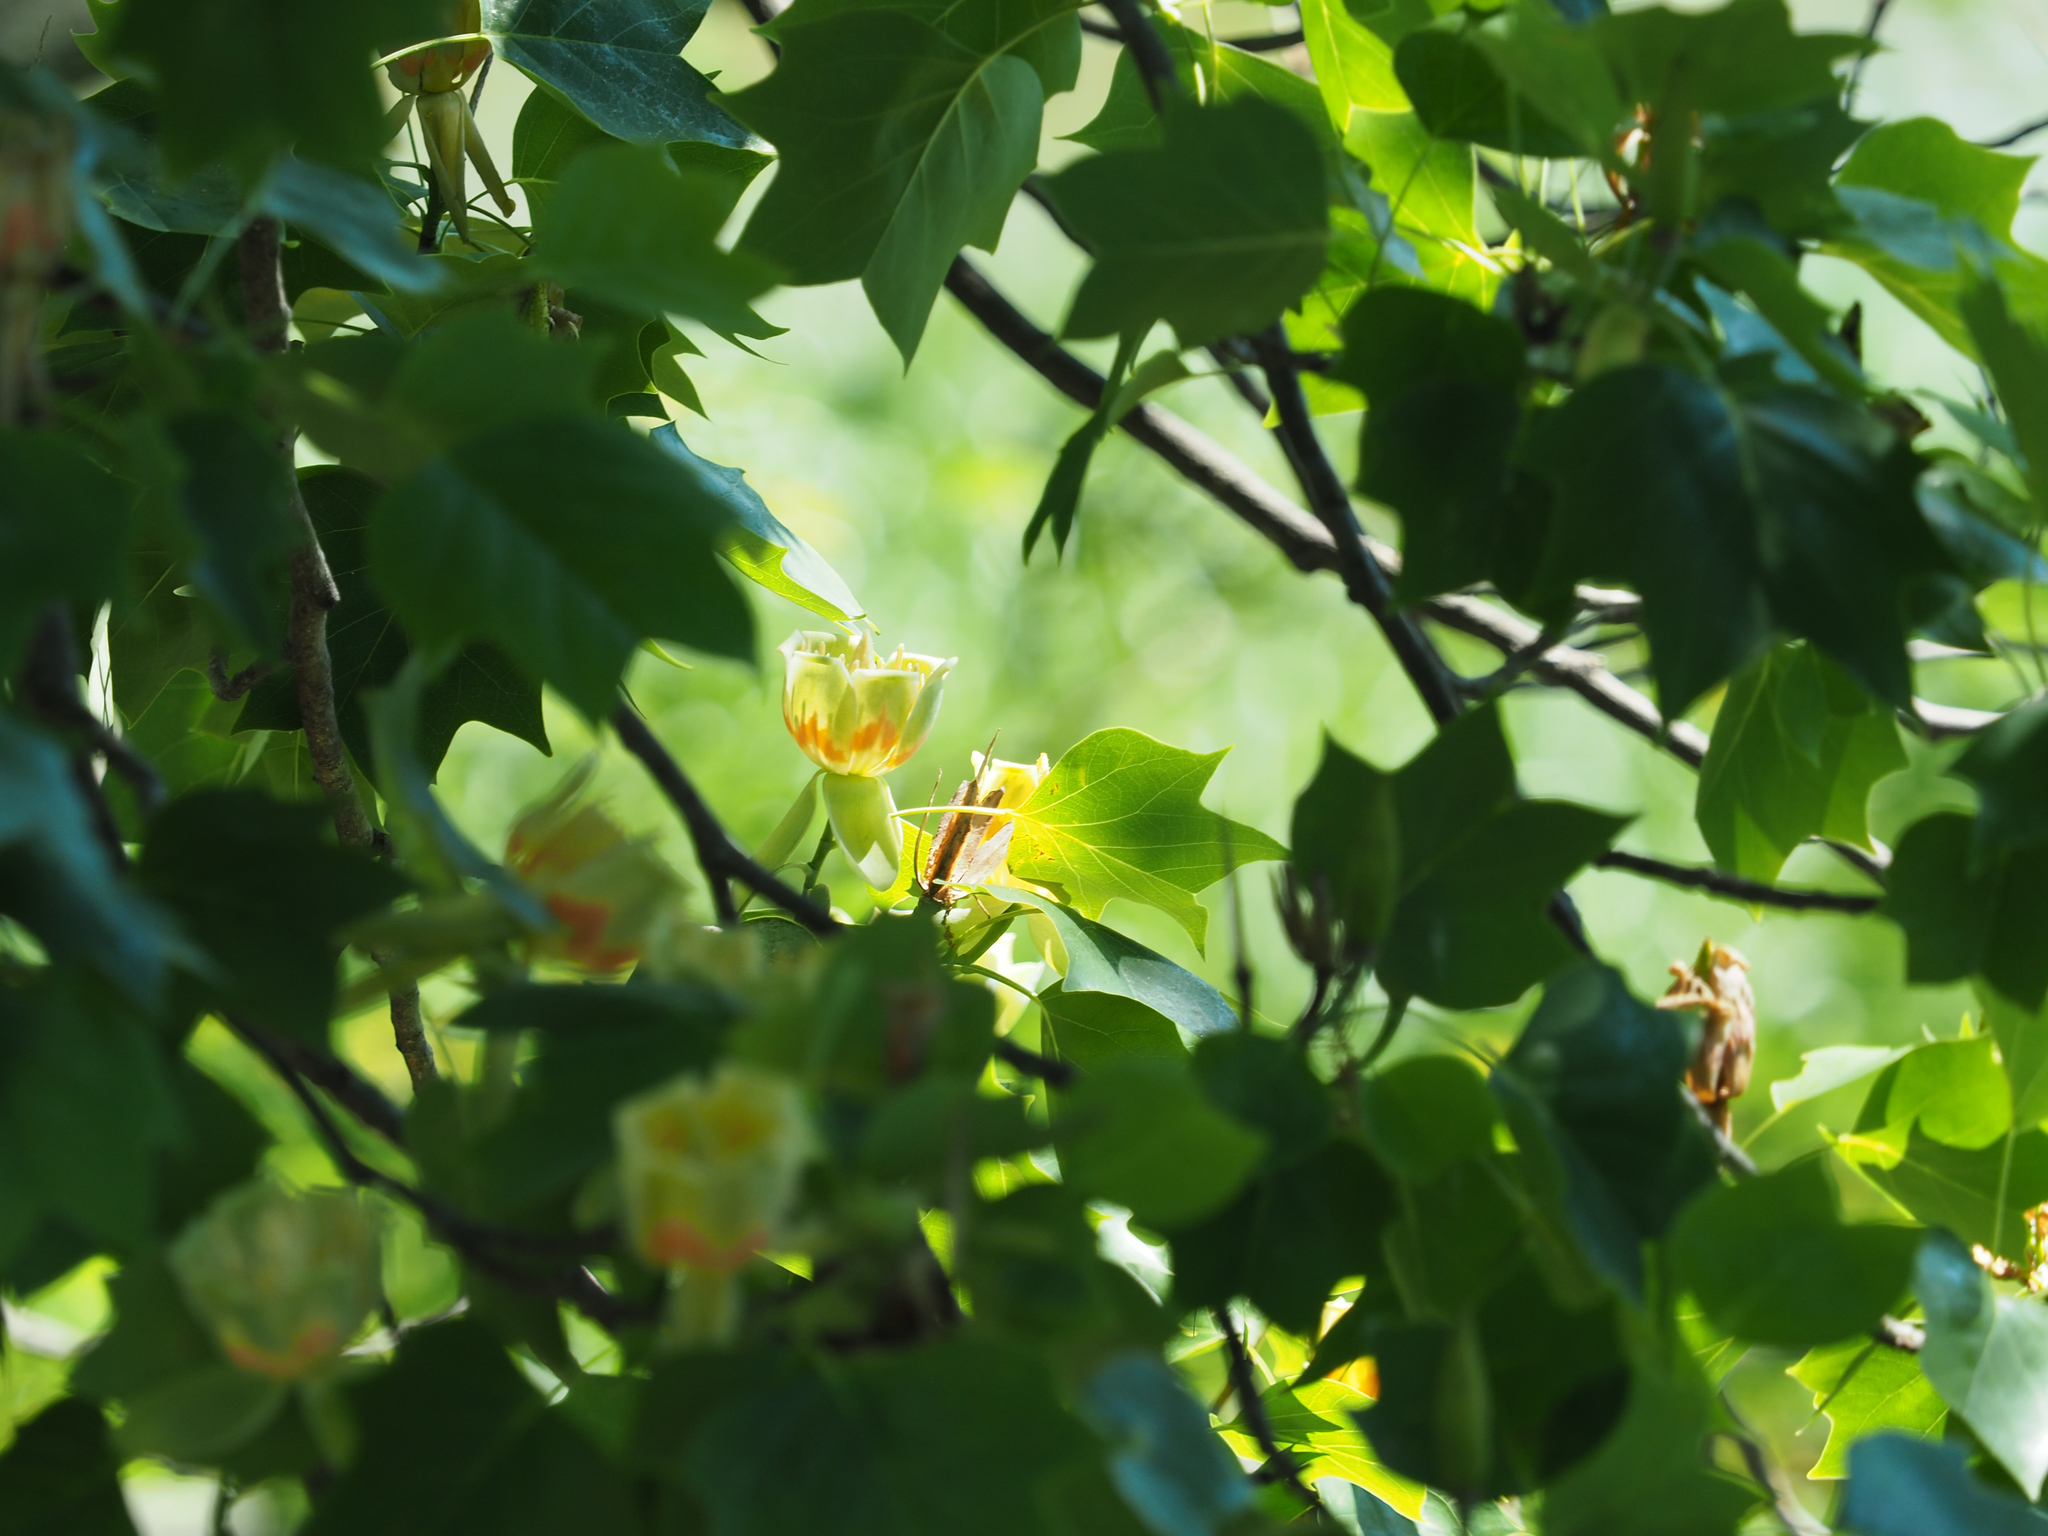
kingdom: Plantae
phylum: Tracheophyta
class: Magnoliopsida
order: Magnoliales
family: Magnoliaceae
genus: Liriodendron
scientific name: Liriodendron tulipifera
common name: Tulip tree
